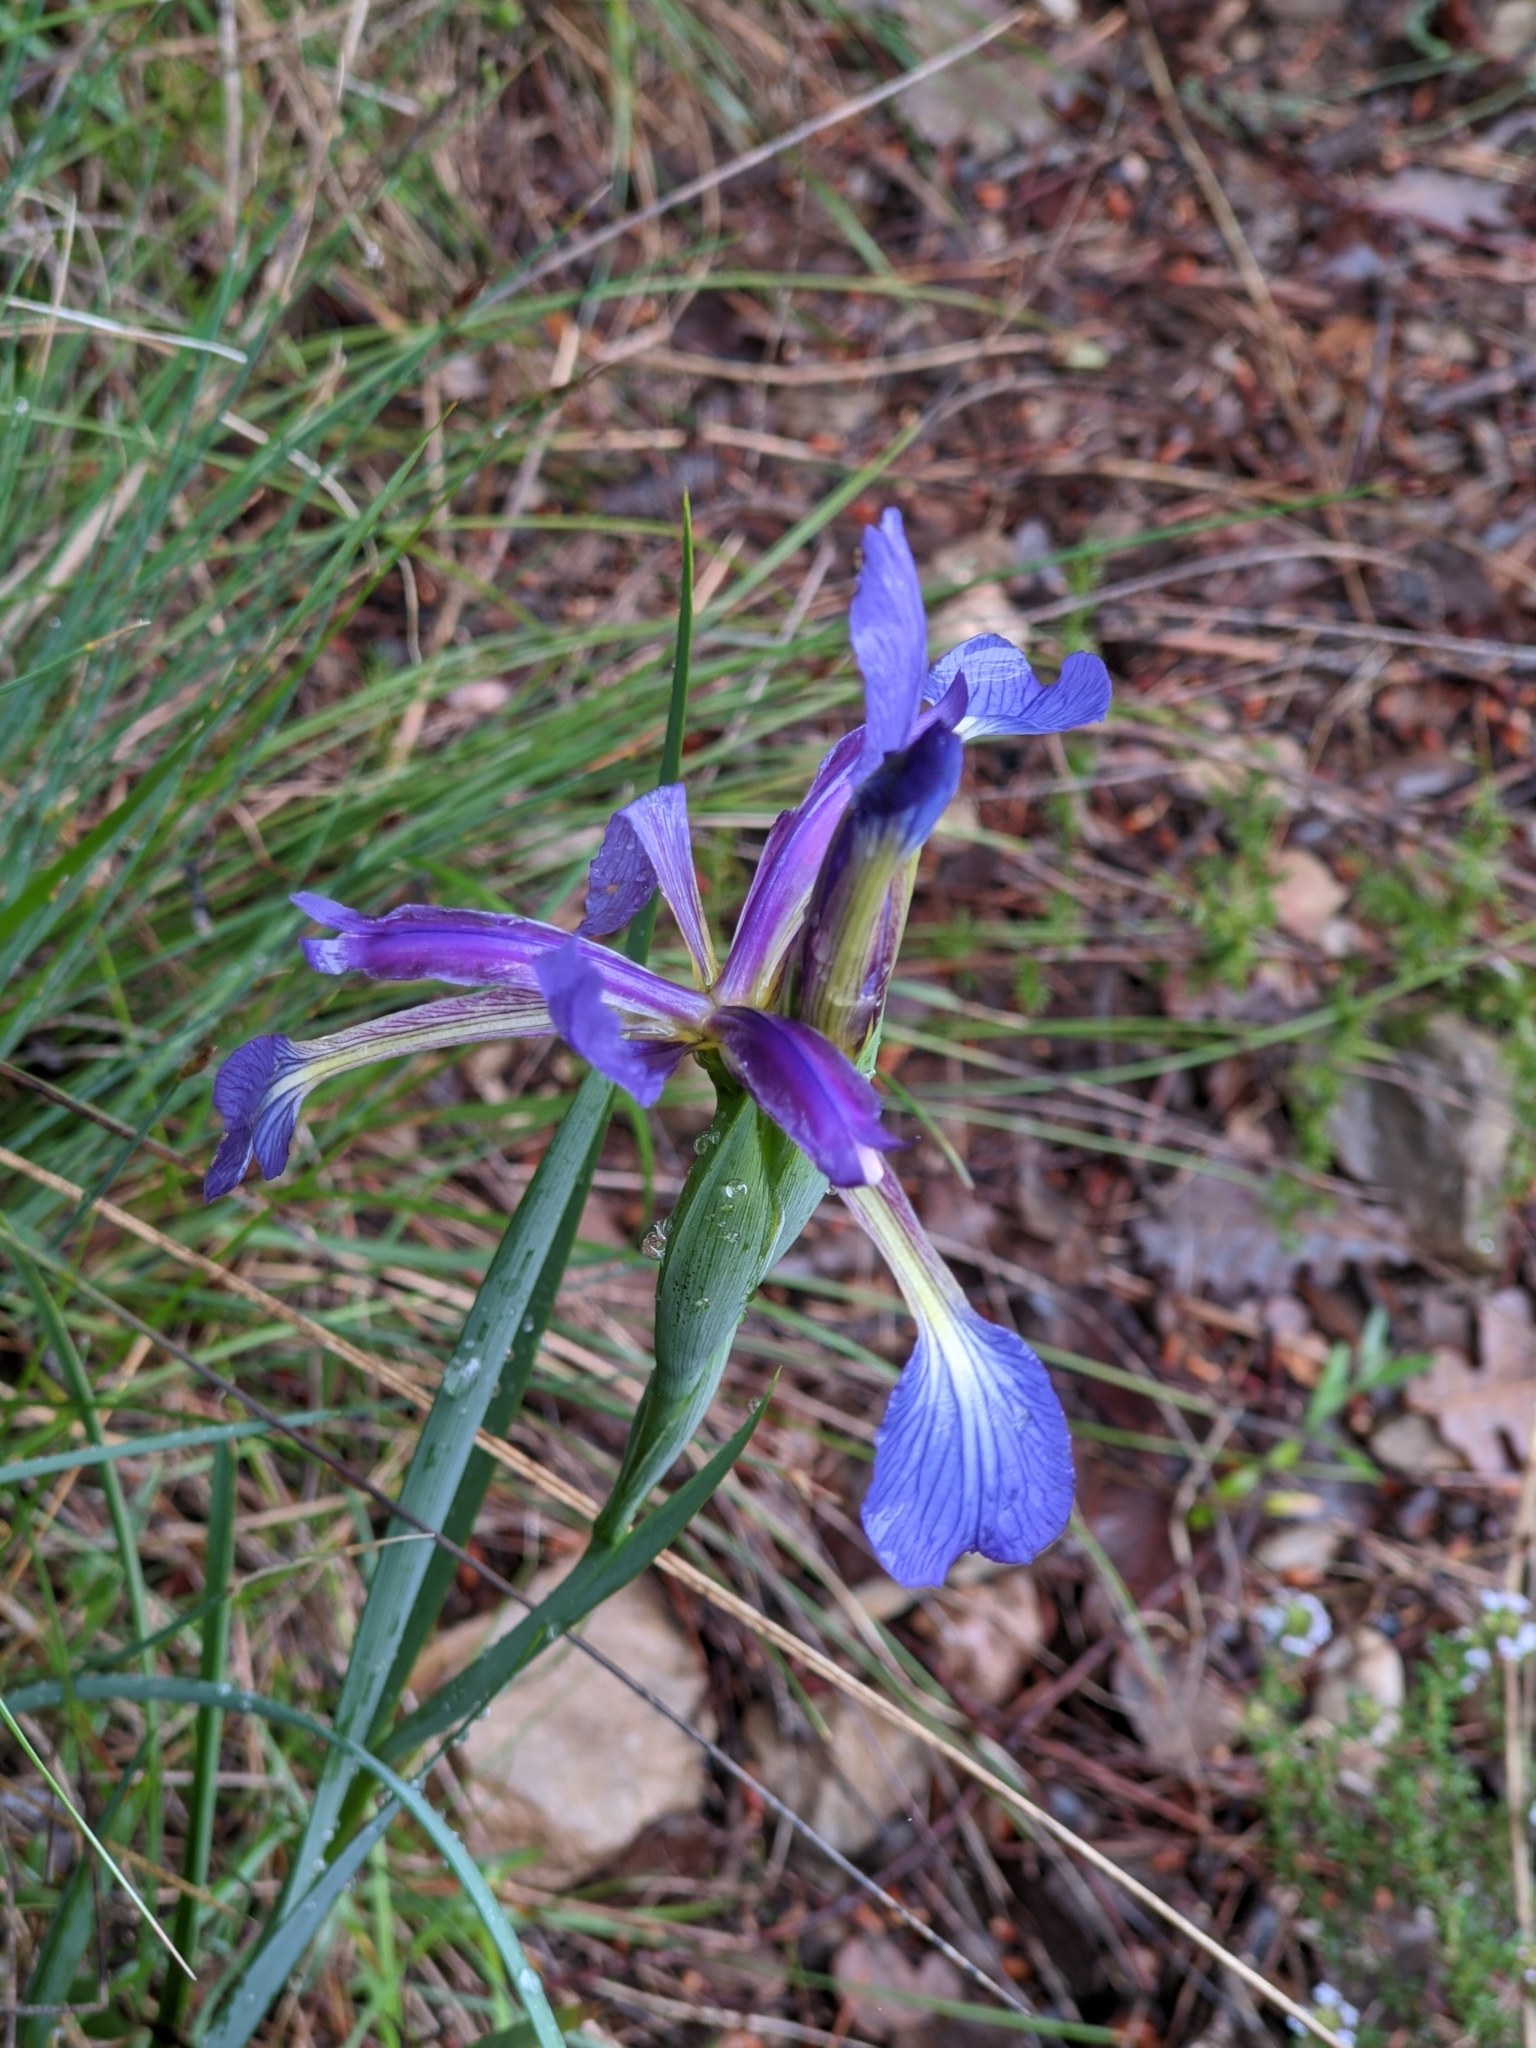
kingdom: Plantae
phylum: Tracheophyta
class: Liliopsida
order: Asparagales
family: Iridaceae
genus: Iris
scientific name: Iris reichenbachiana
